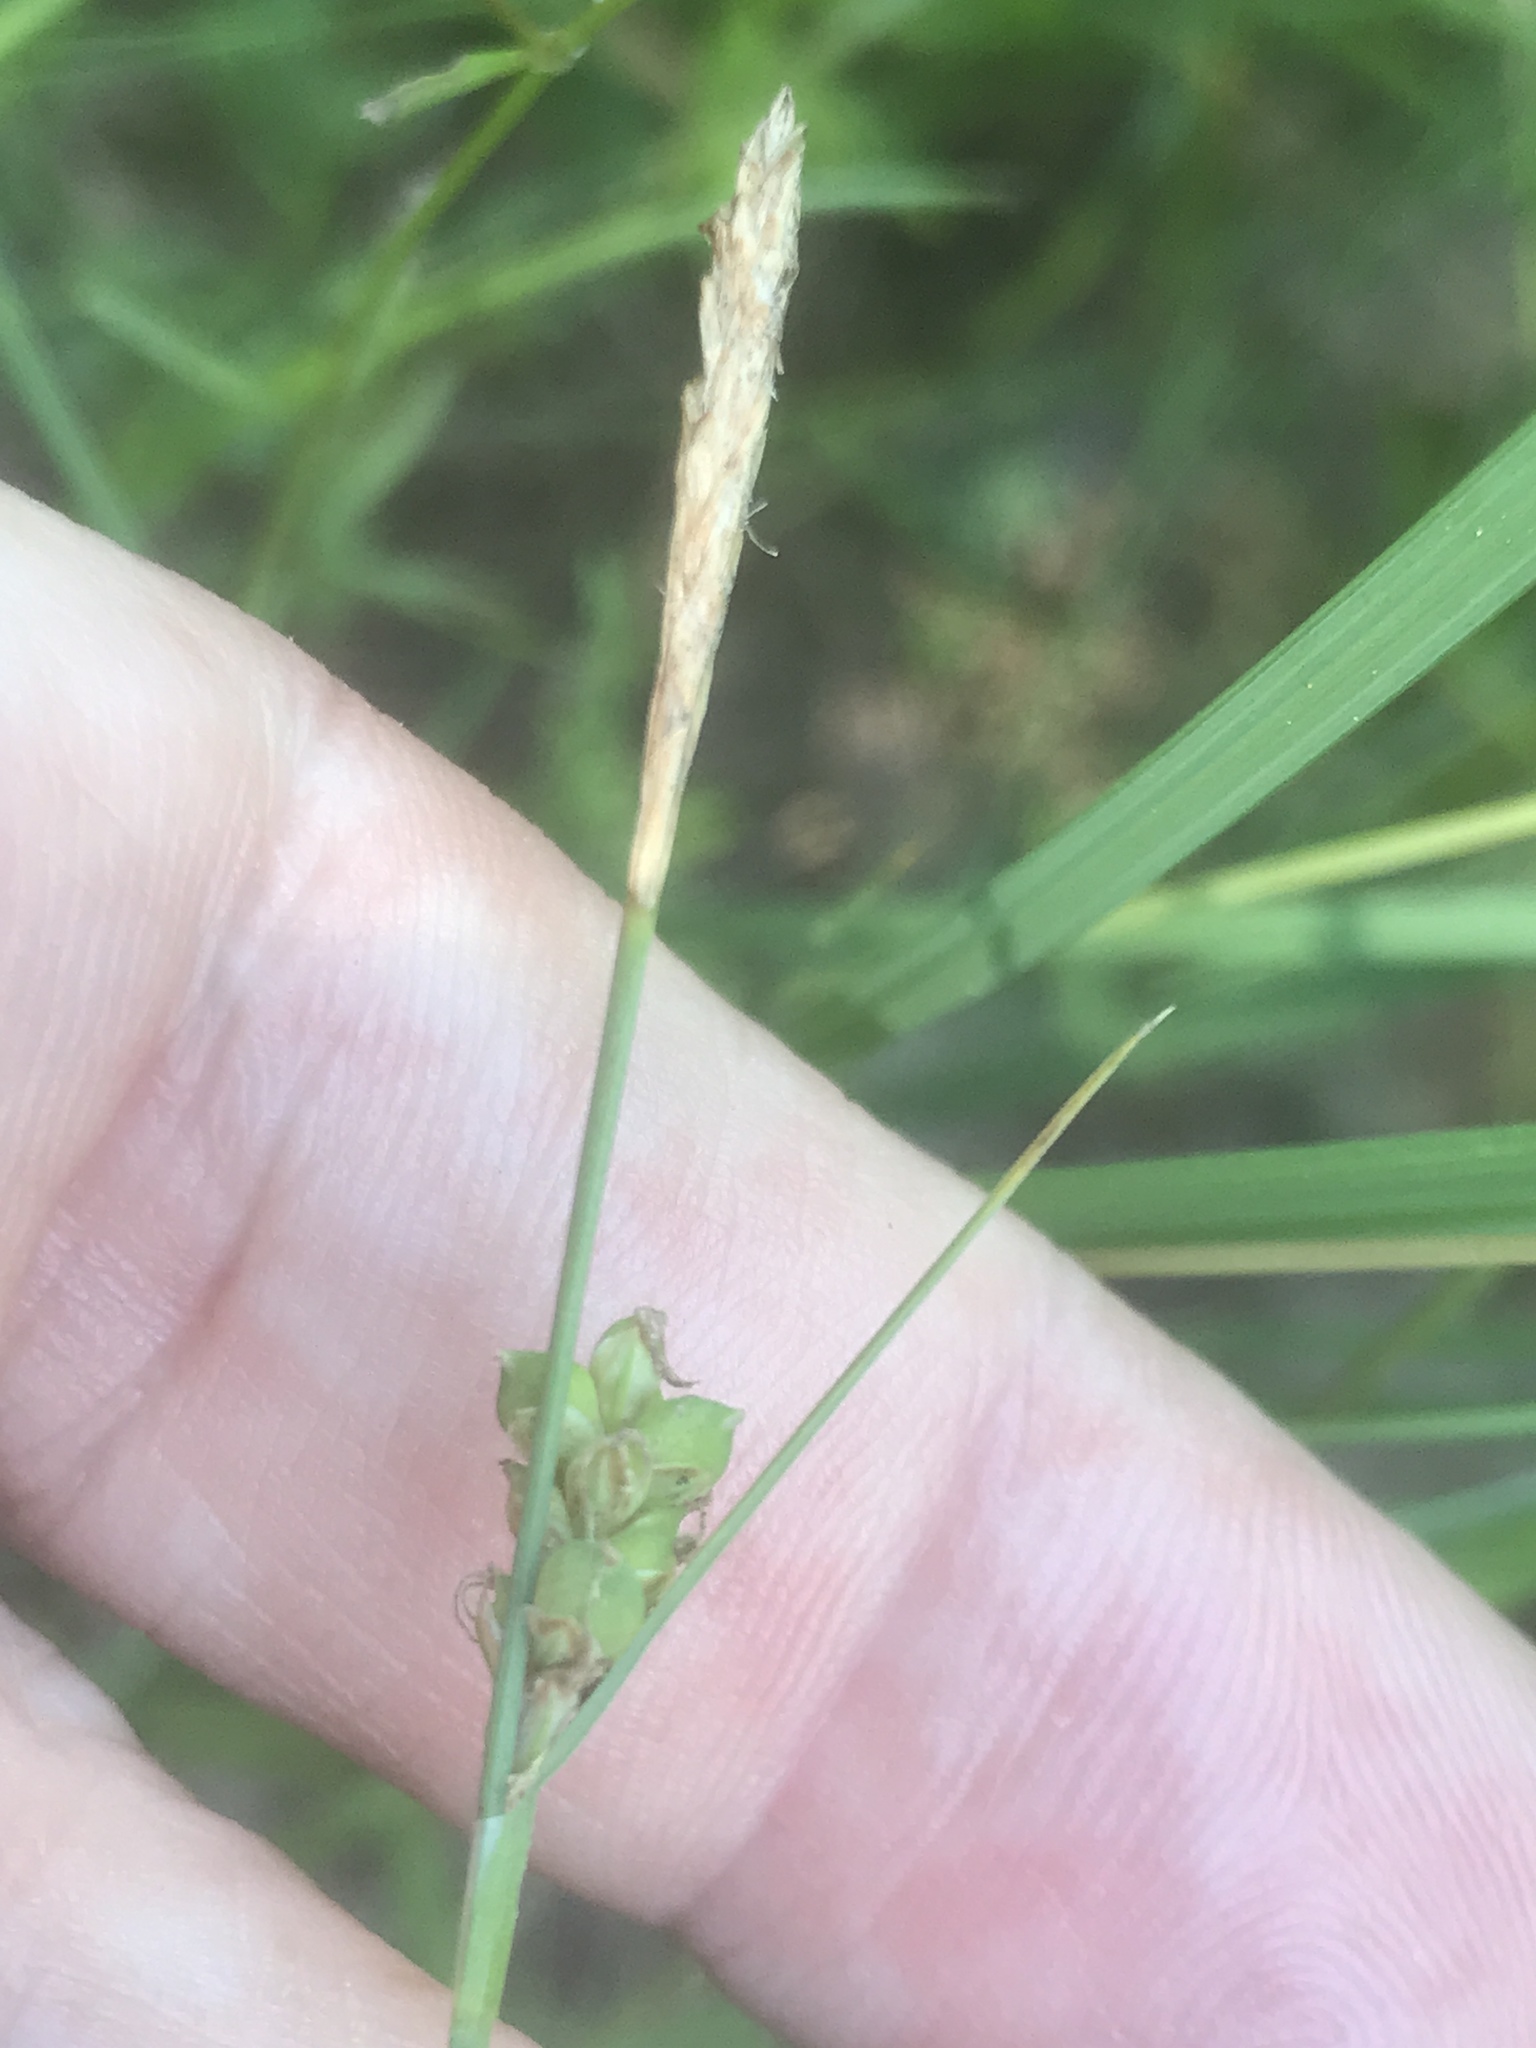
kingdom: Plantae
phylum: Tracheophyta
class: Liliopsida
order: Poales
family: Cyperaceae
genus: Carex
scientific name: Carex meadii
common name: Mead's sedge
